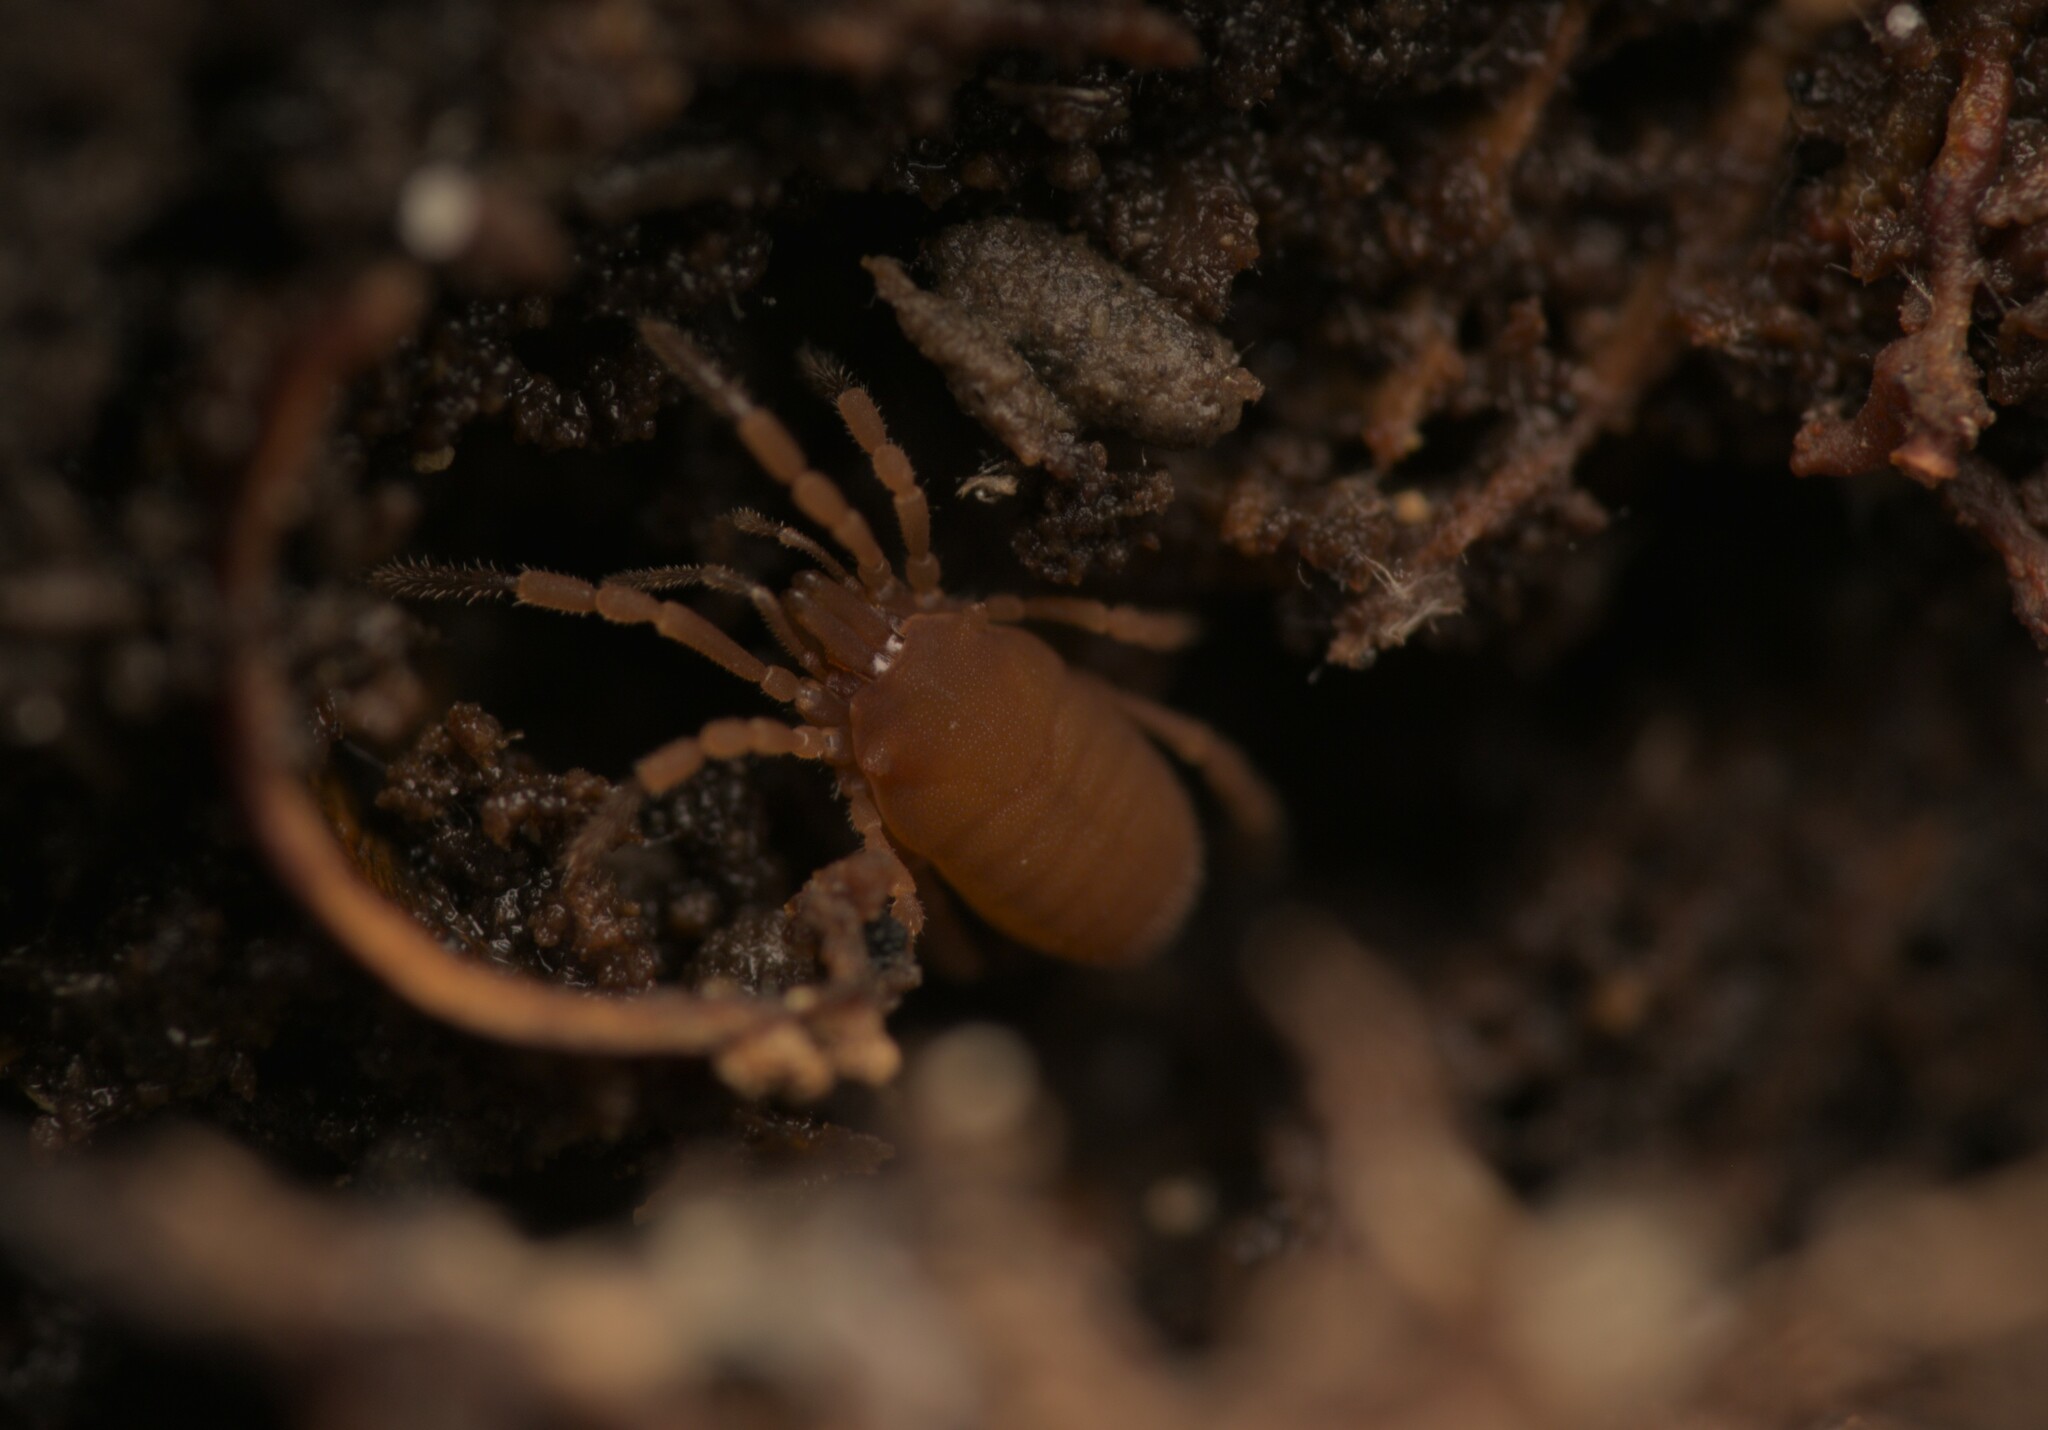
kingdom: Animalia
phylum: Arthropoda
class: Arachnida
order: Opiliones
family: Sironidae
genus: Siro
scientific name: Siro rubens
